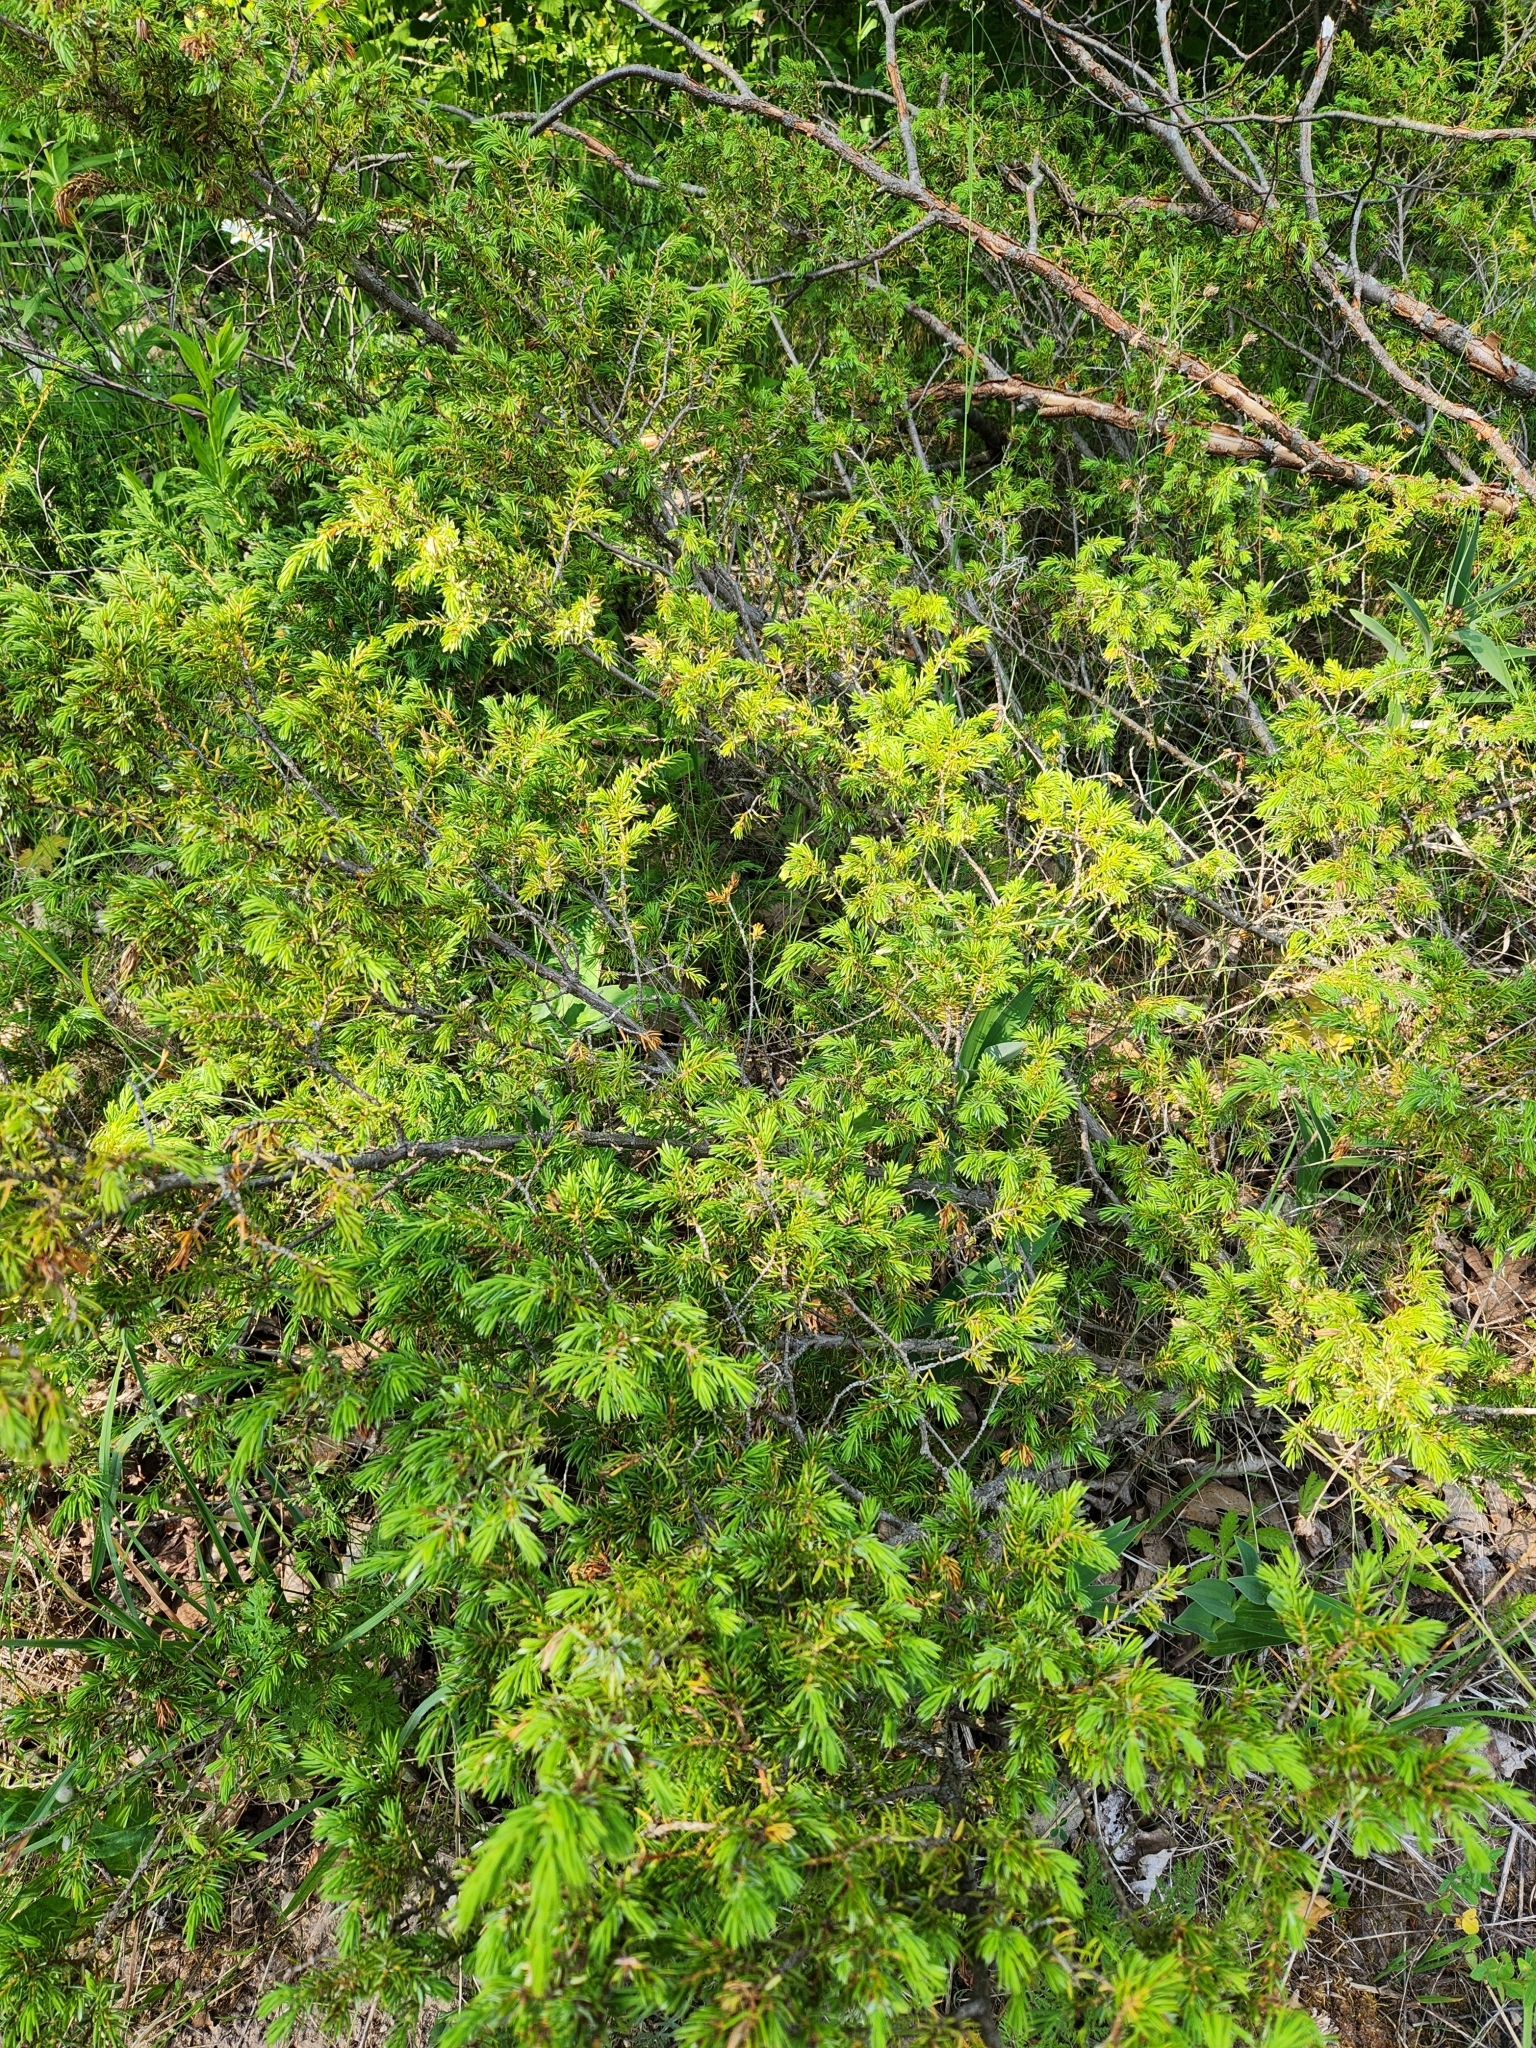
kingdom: Plantae
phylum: Tracheophyta
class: Pinopsida
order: Pinales
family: Cupressaceae
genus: Juniperus
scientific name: Juniperus communis
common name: Common juniper
